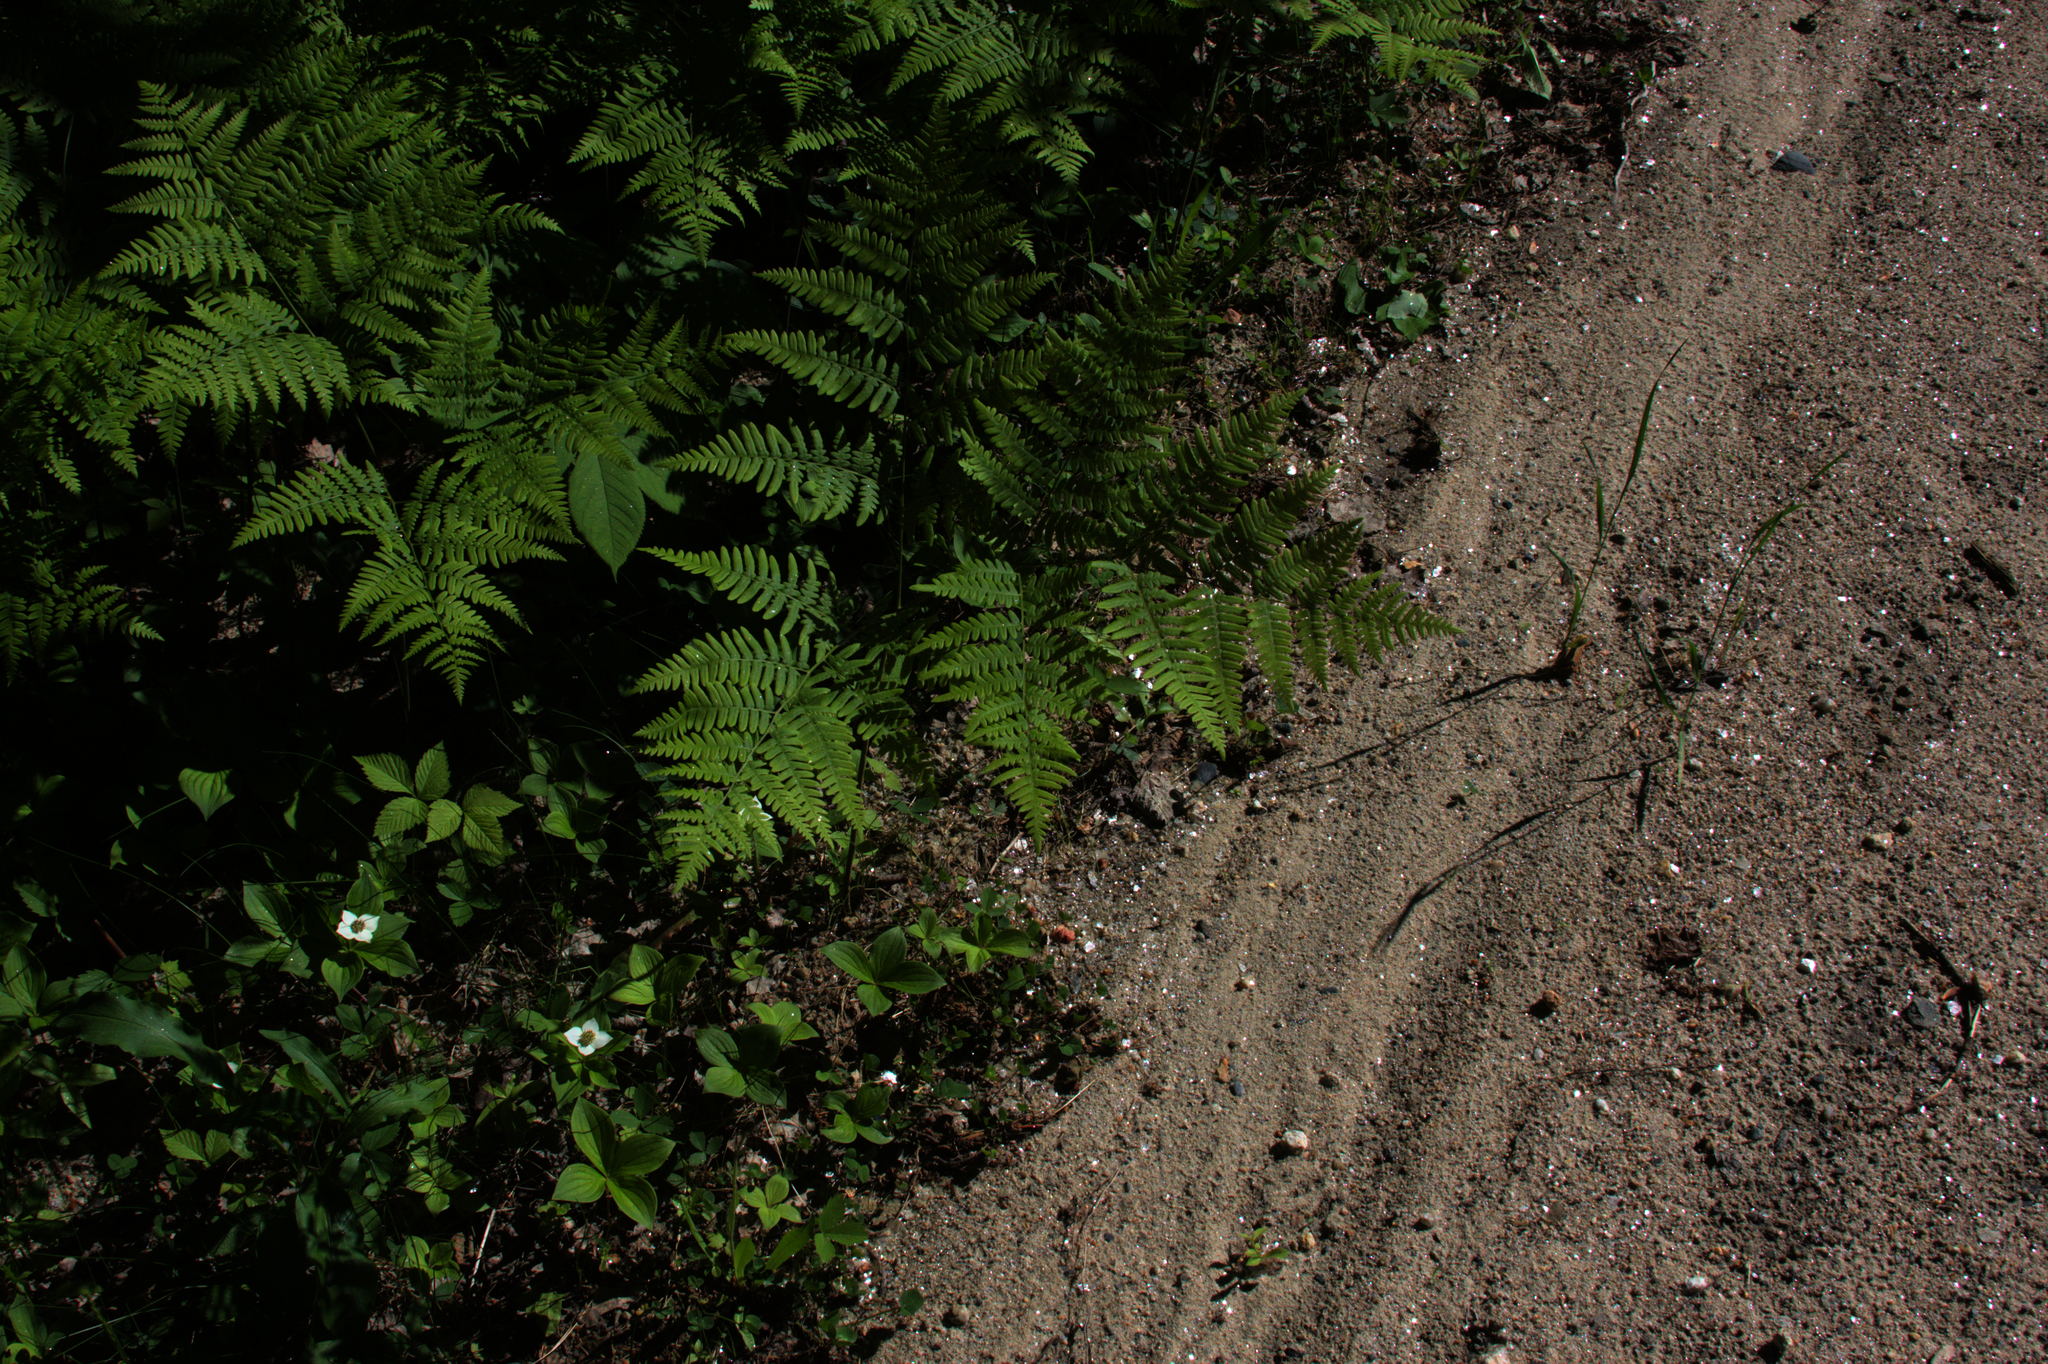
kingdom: Plantae
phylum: Tracheophyta
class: Polypodiopsida
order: Polypodiales
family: Dennstaedtiaceae
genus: Pteridium
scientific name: Pteridium aquilinum
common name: Bracken
